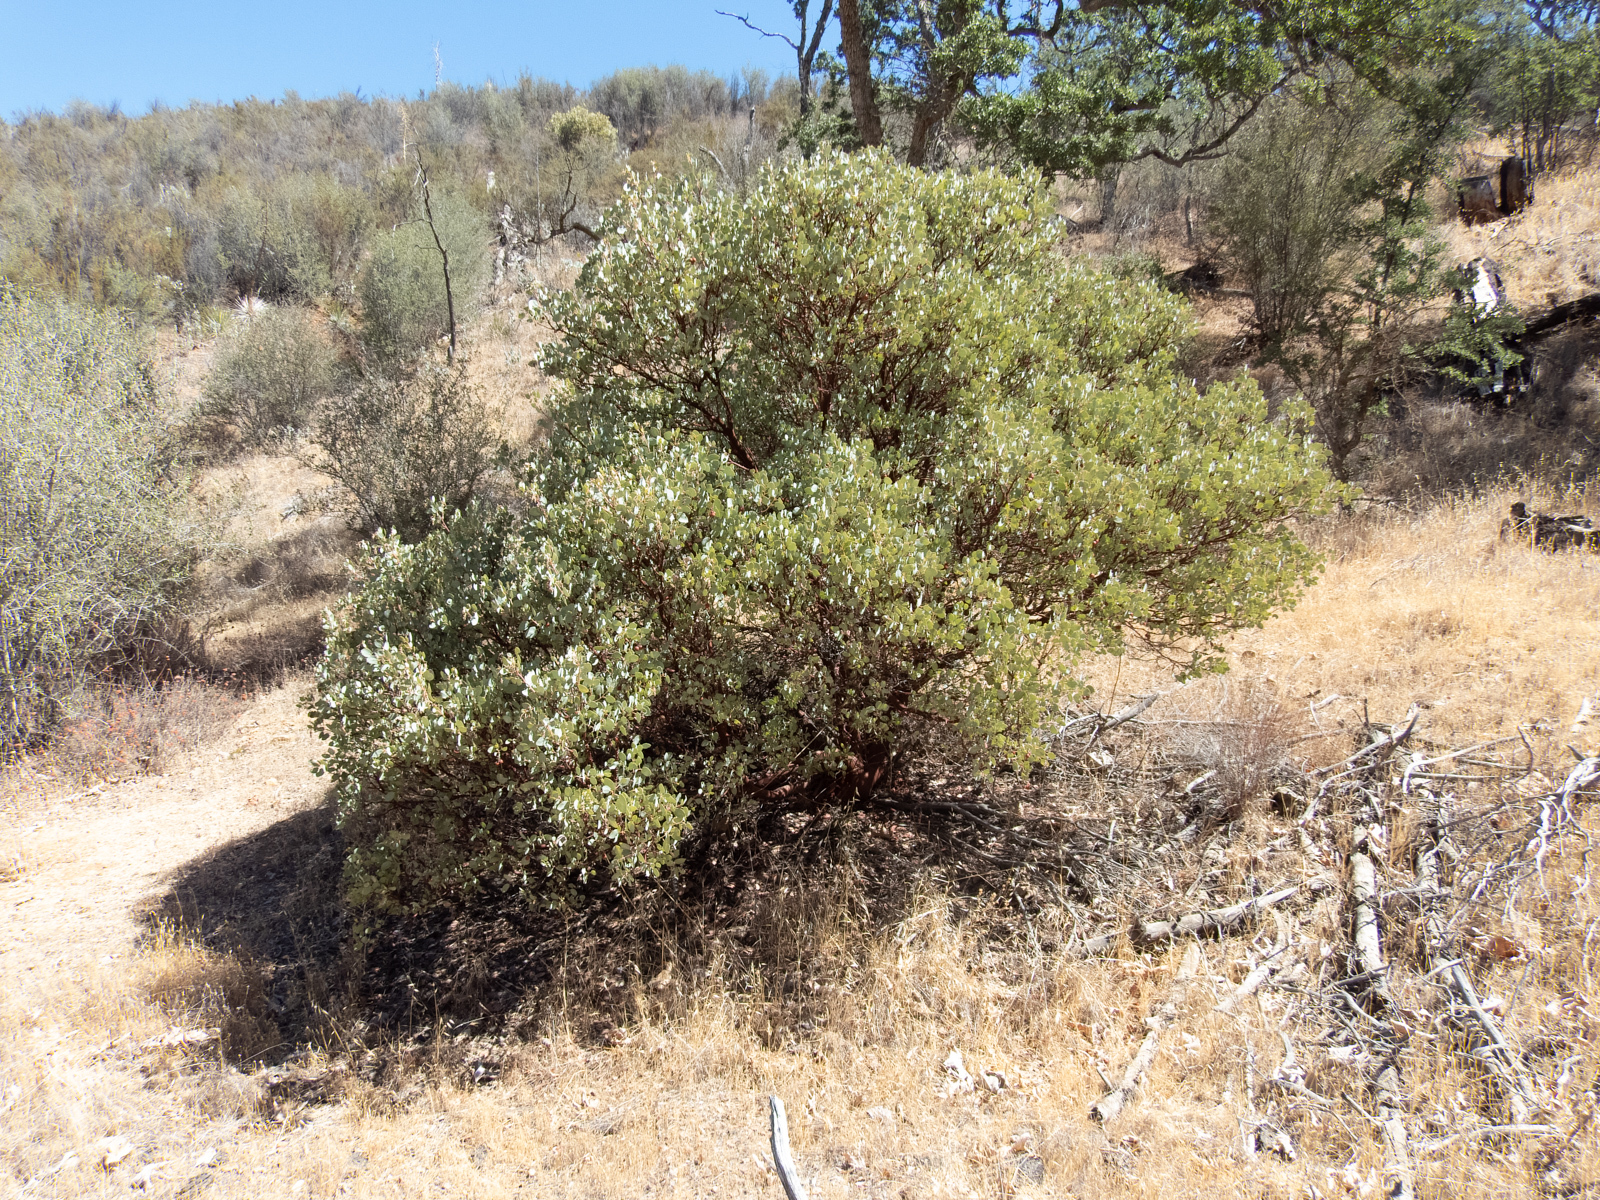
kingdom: Plantae
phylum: Tracheophyta
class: Magnoliopsida
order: Ericales
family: Ericaceae
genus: Arctostaphylos
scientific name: Arctostaphylos glauca
